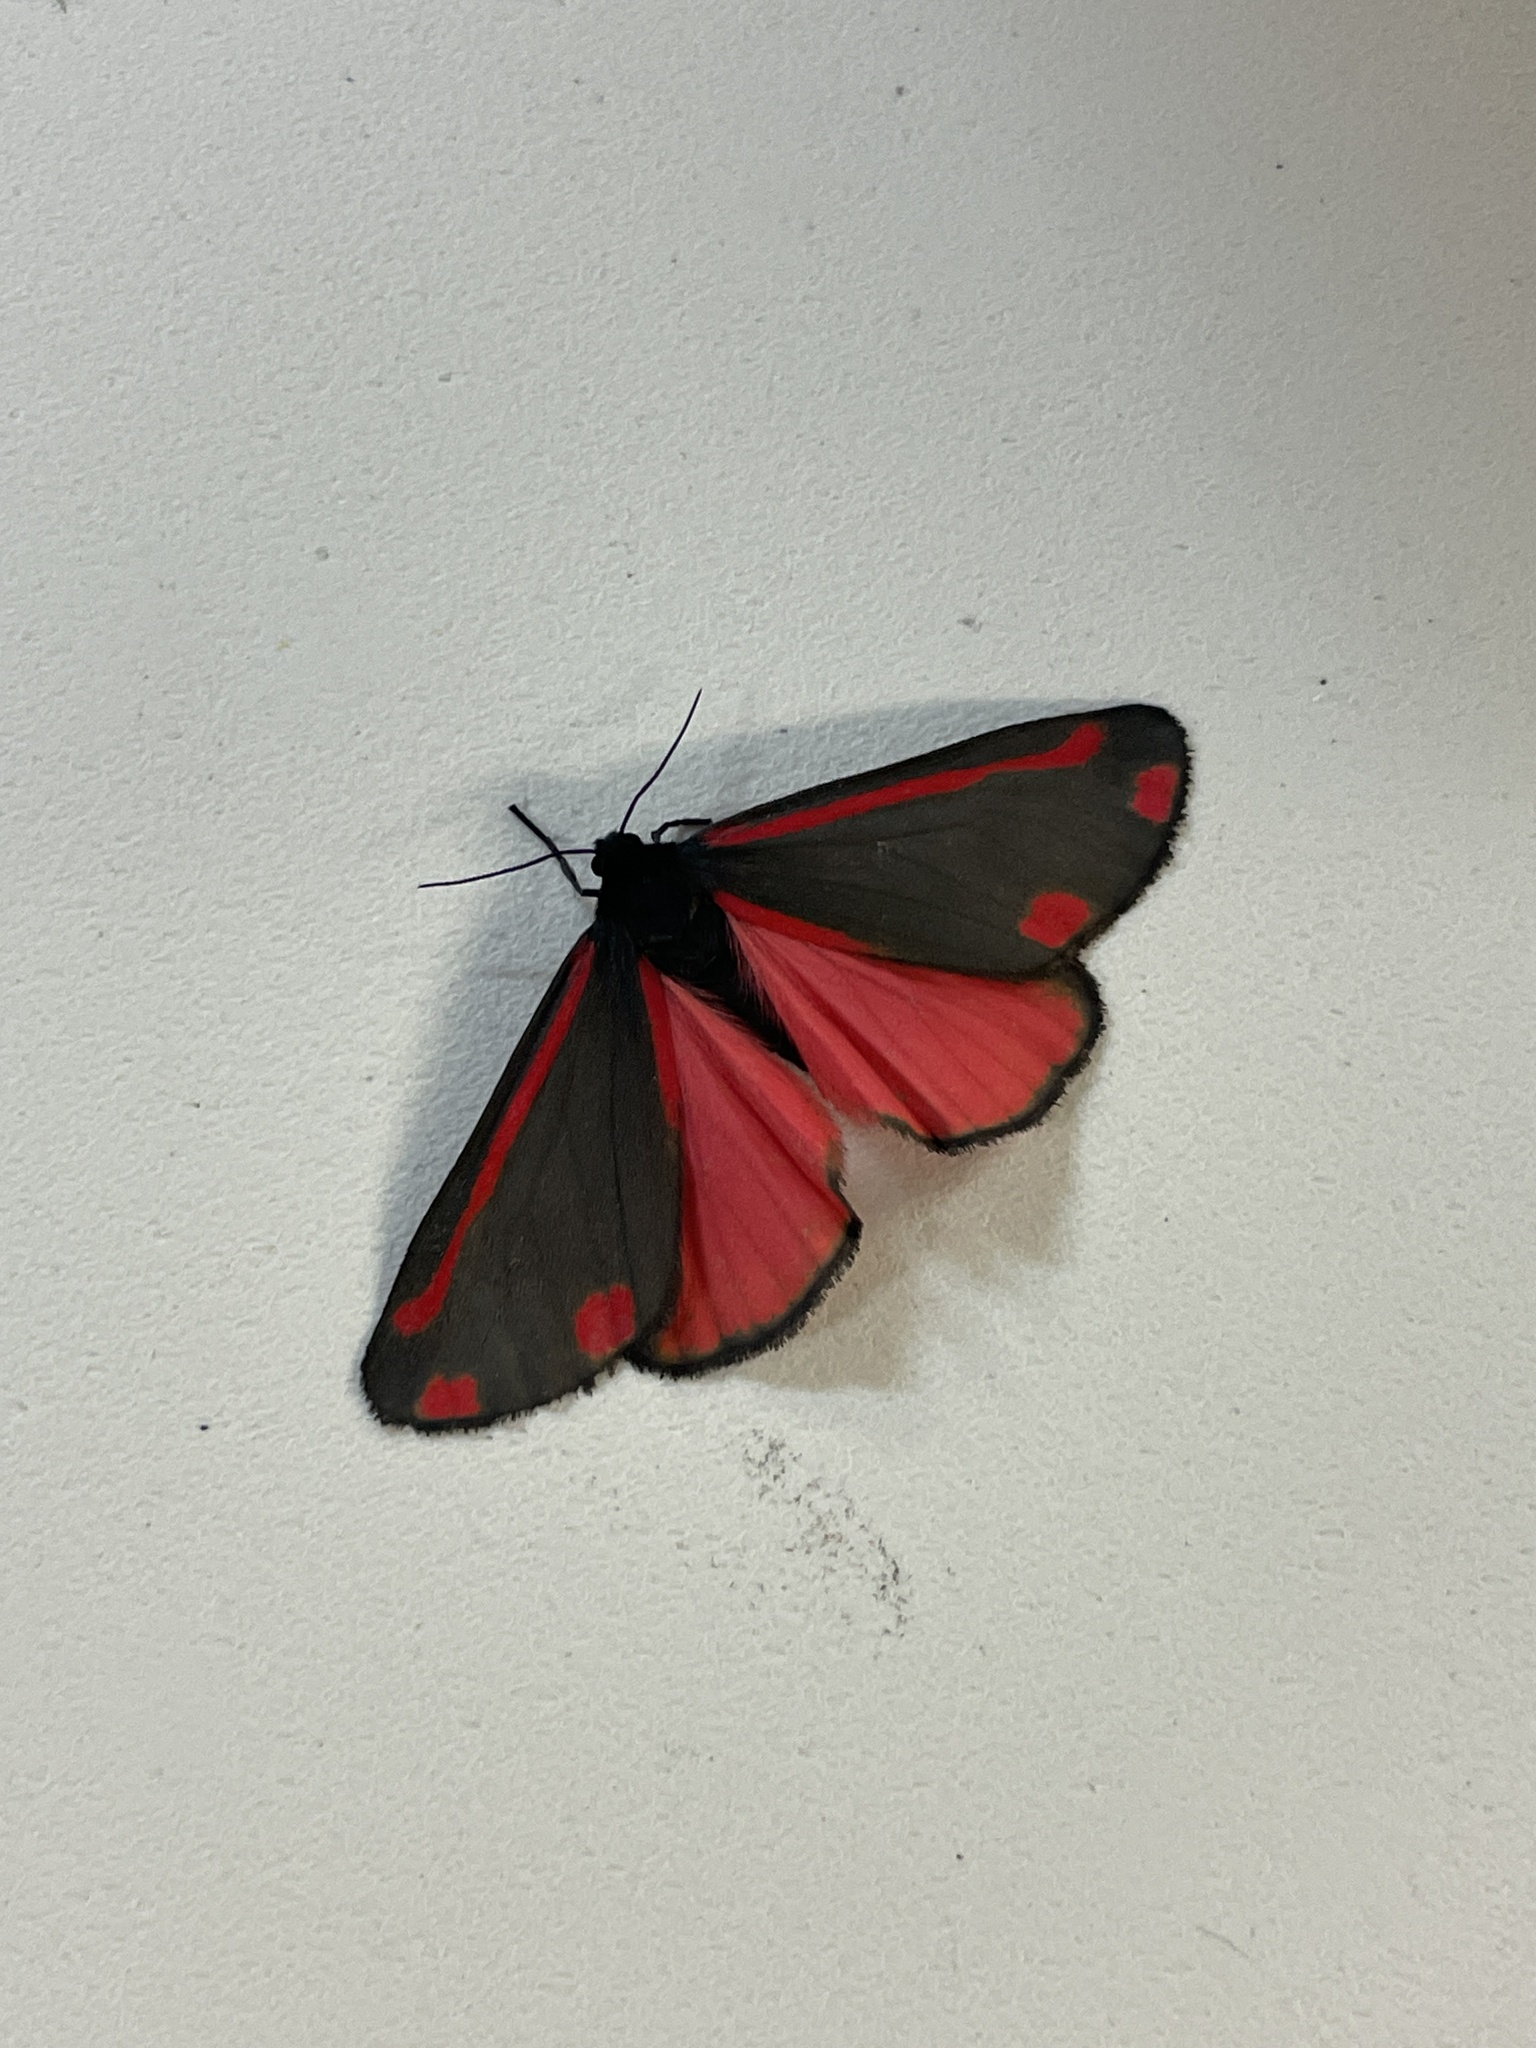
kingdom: Animalia
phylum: Arthropoda
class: Insecta
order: Lepidoptera
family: Erebidae
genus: Tyria
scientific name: Tyria jacobaeae
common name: Cinnabar
